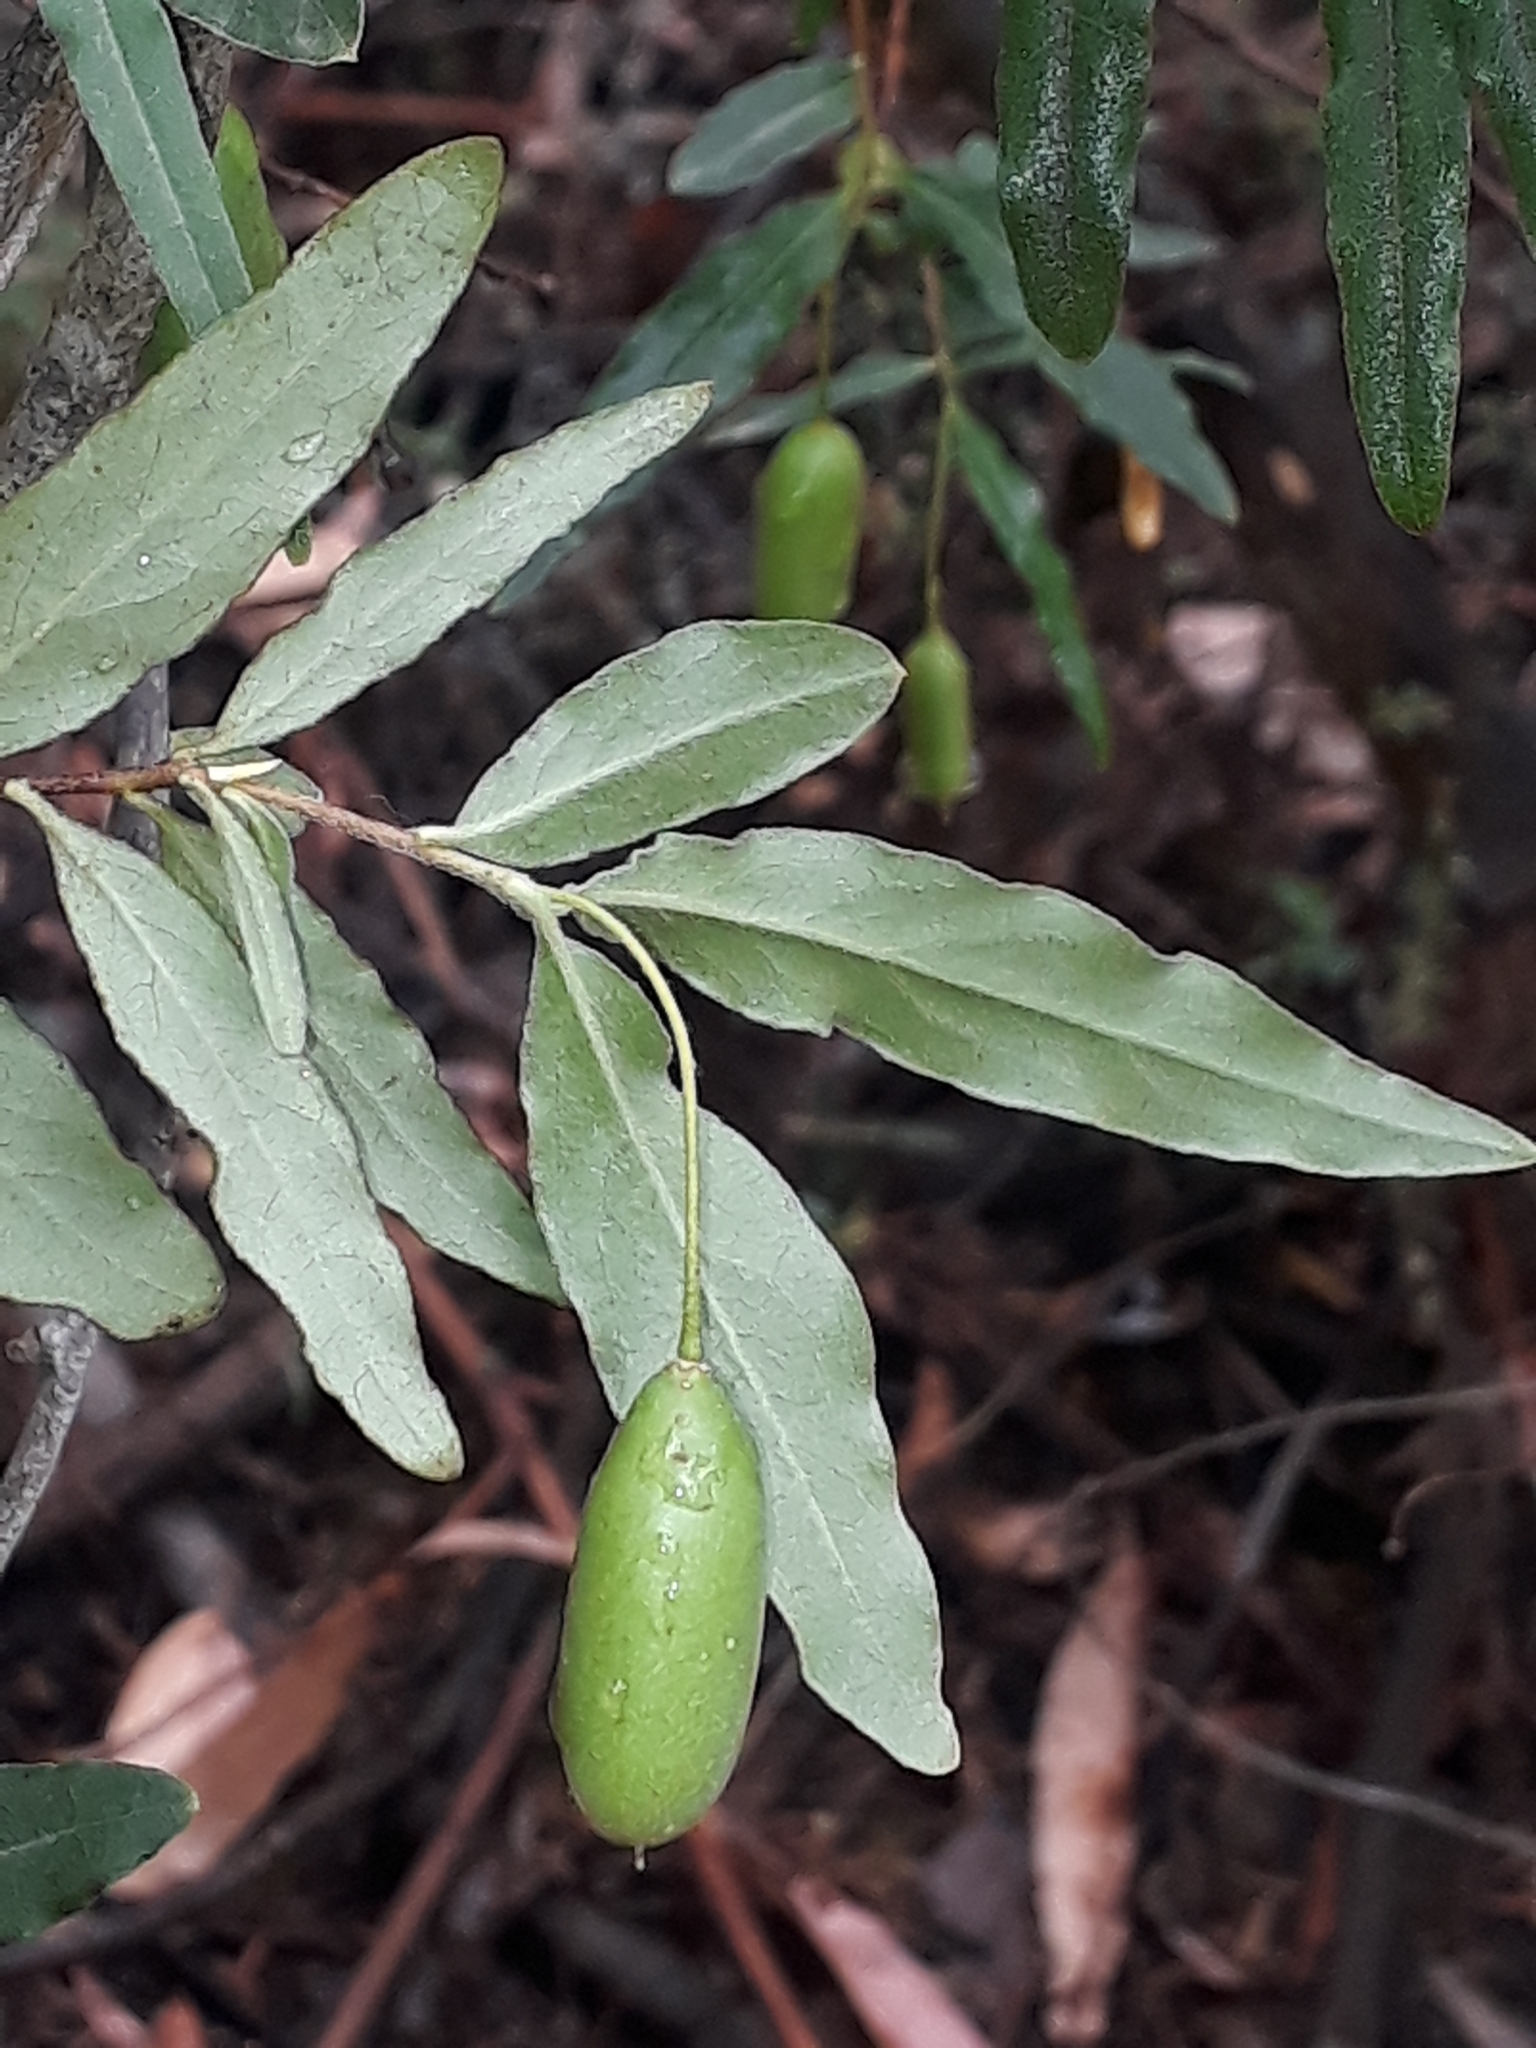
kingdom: Plantae
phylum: Tracheophyta
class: Magnoliopsida
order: Apiales
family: Pittosporaceae
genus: Billardiera
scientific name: Billardiera mutabilis
